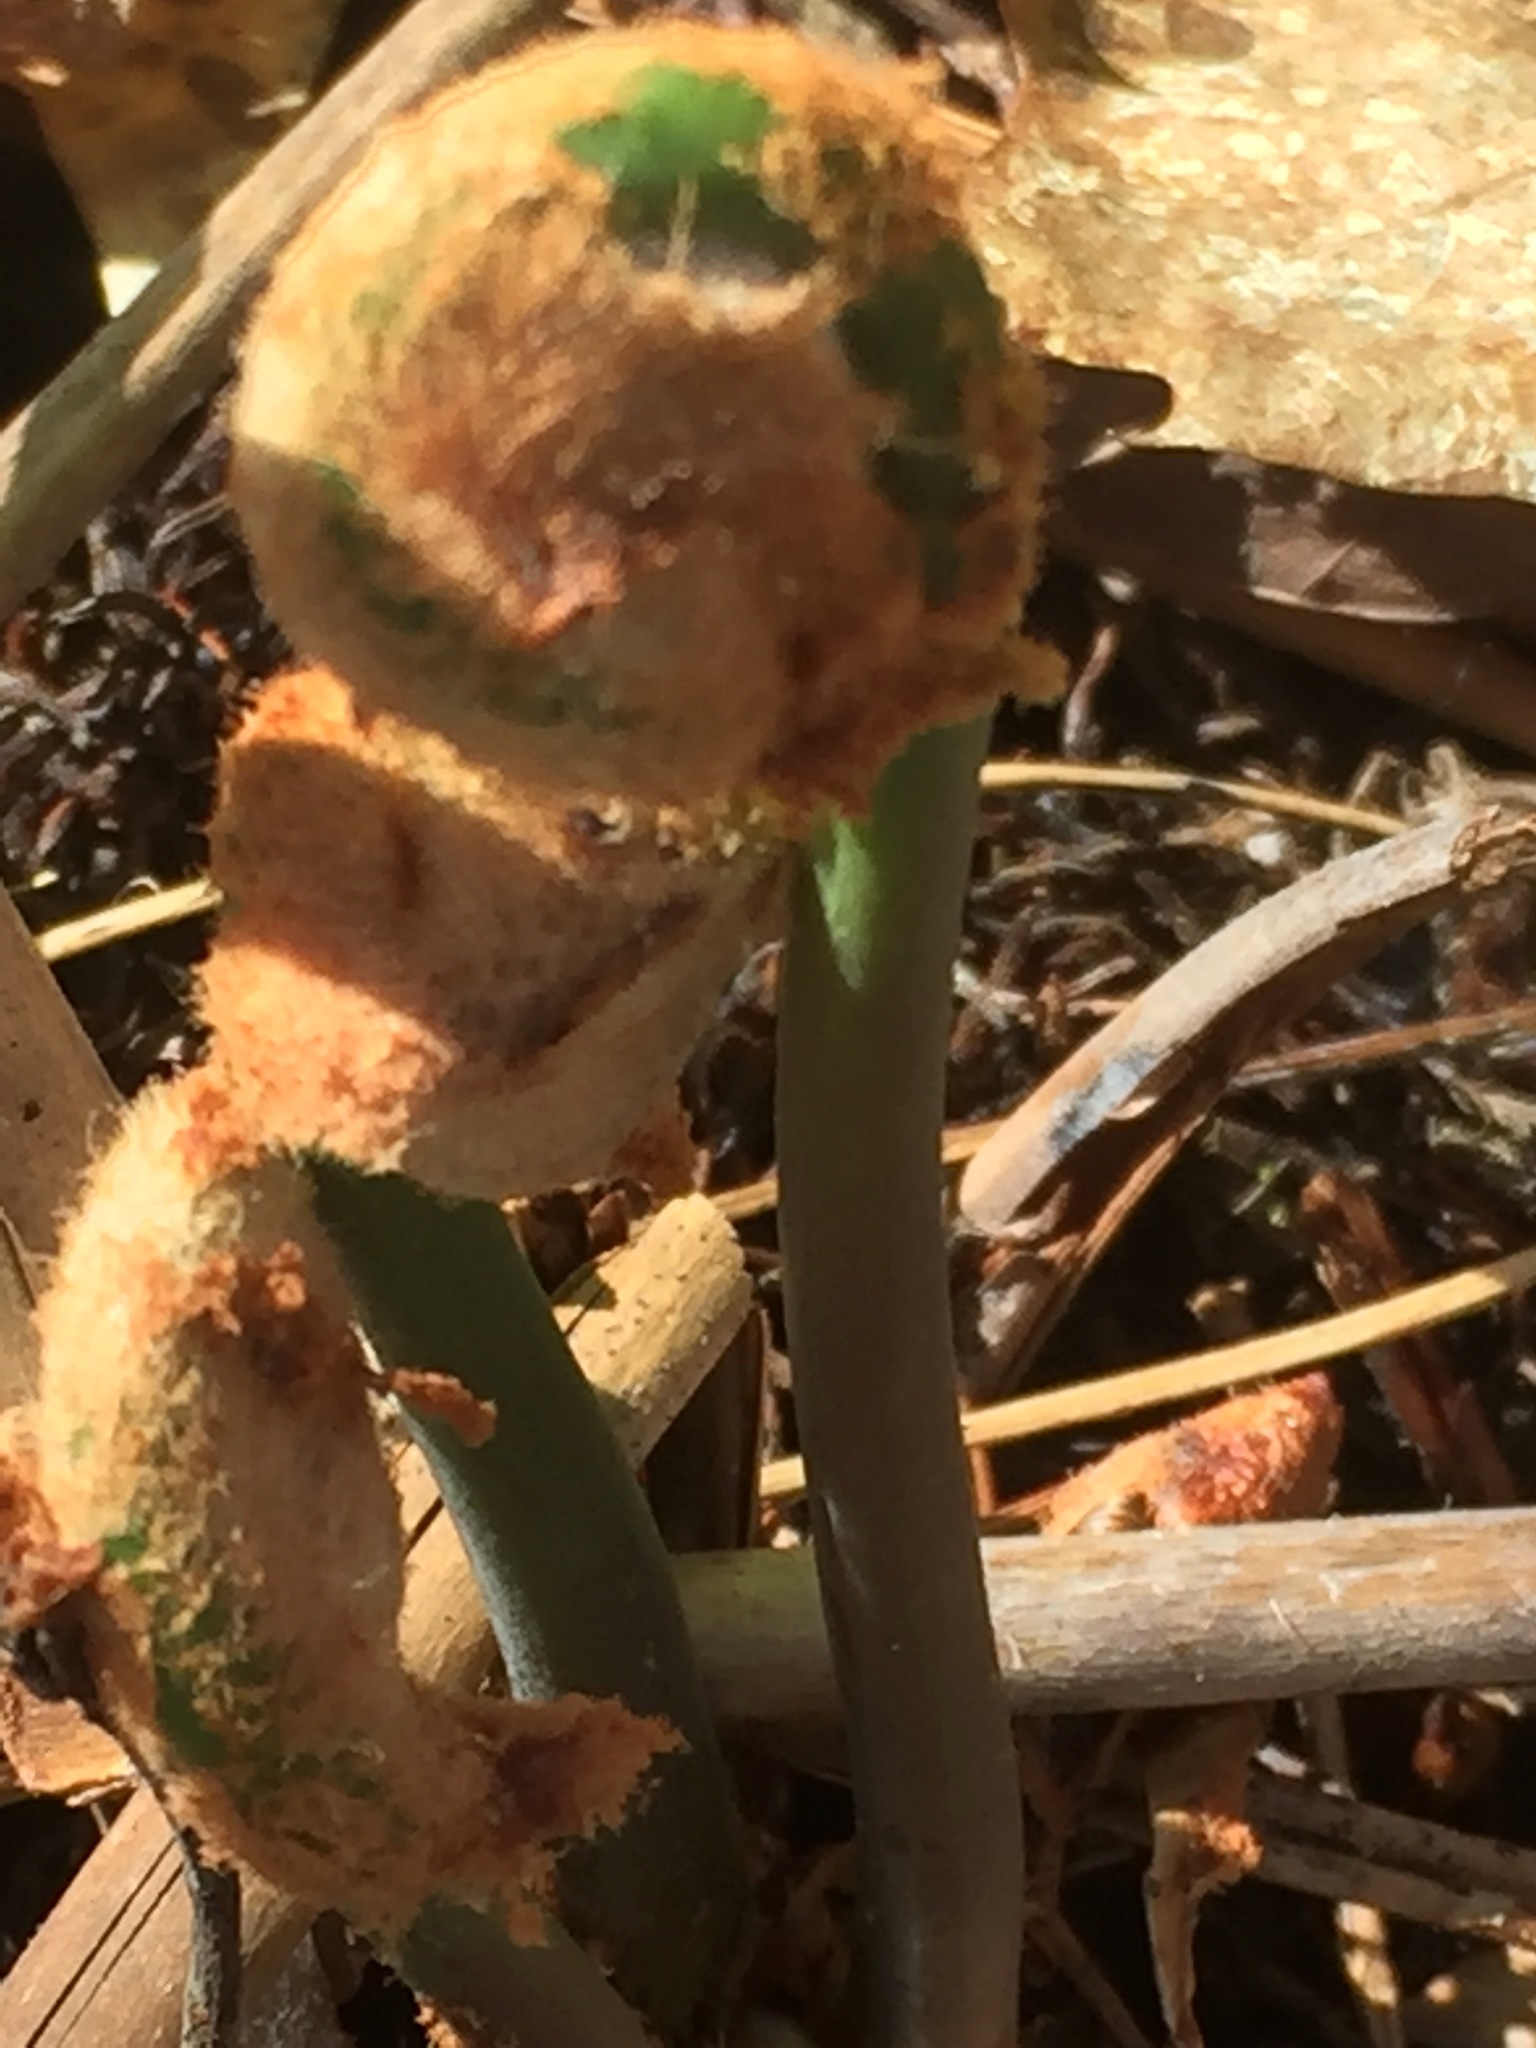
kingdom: Plantae
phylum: Tracheophyta
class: Polypodiopsida
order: Osmundales
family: Osmundaceae
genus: Osmunda
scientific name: Osmunda spectabilis
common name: American royal fern
